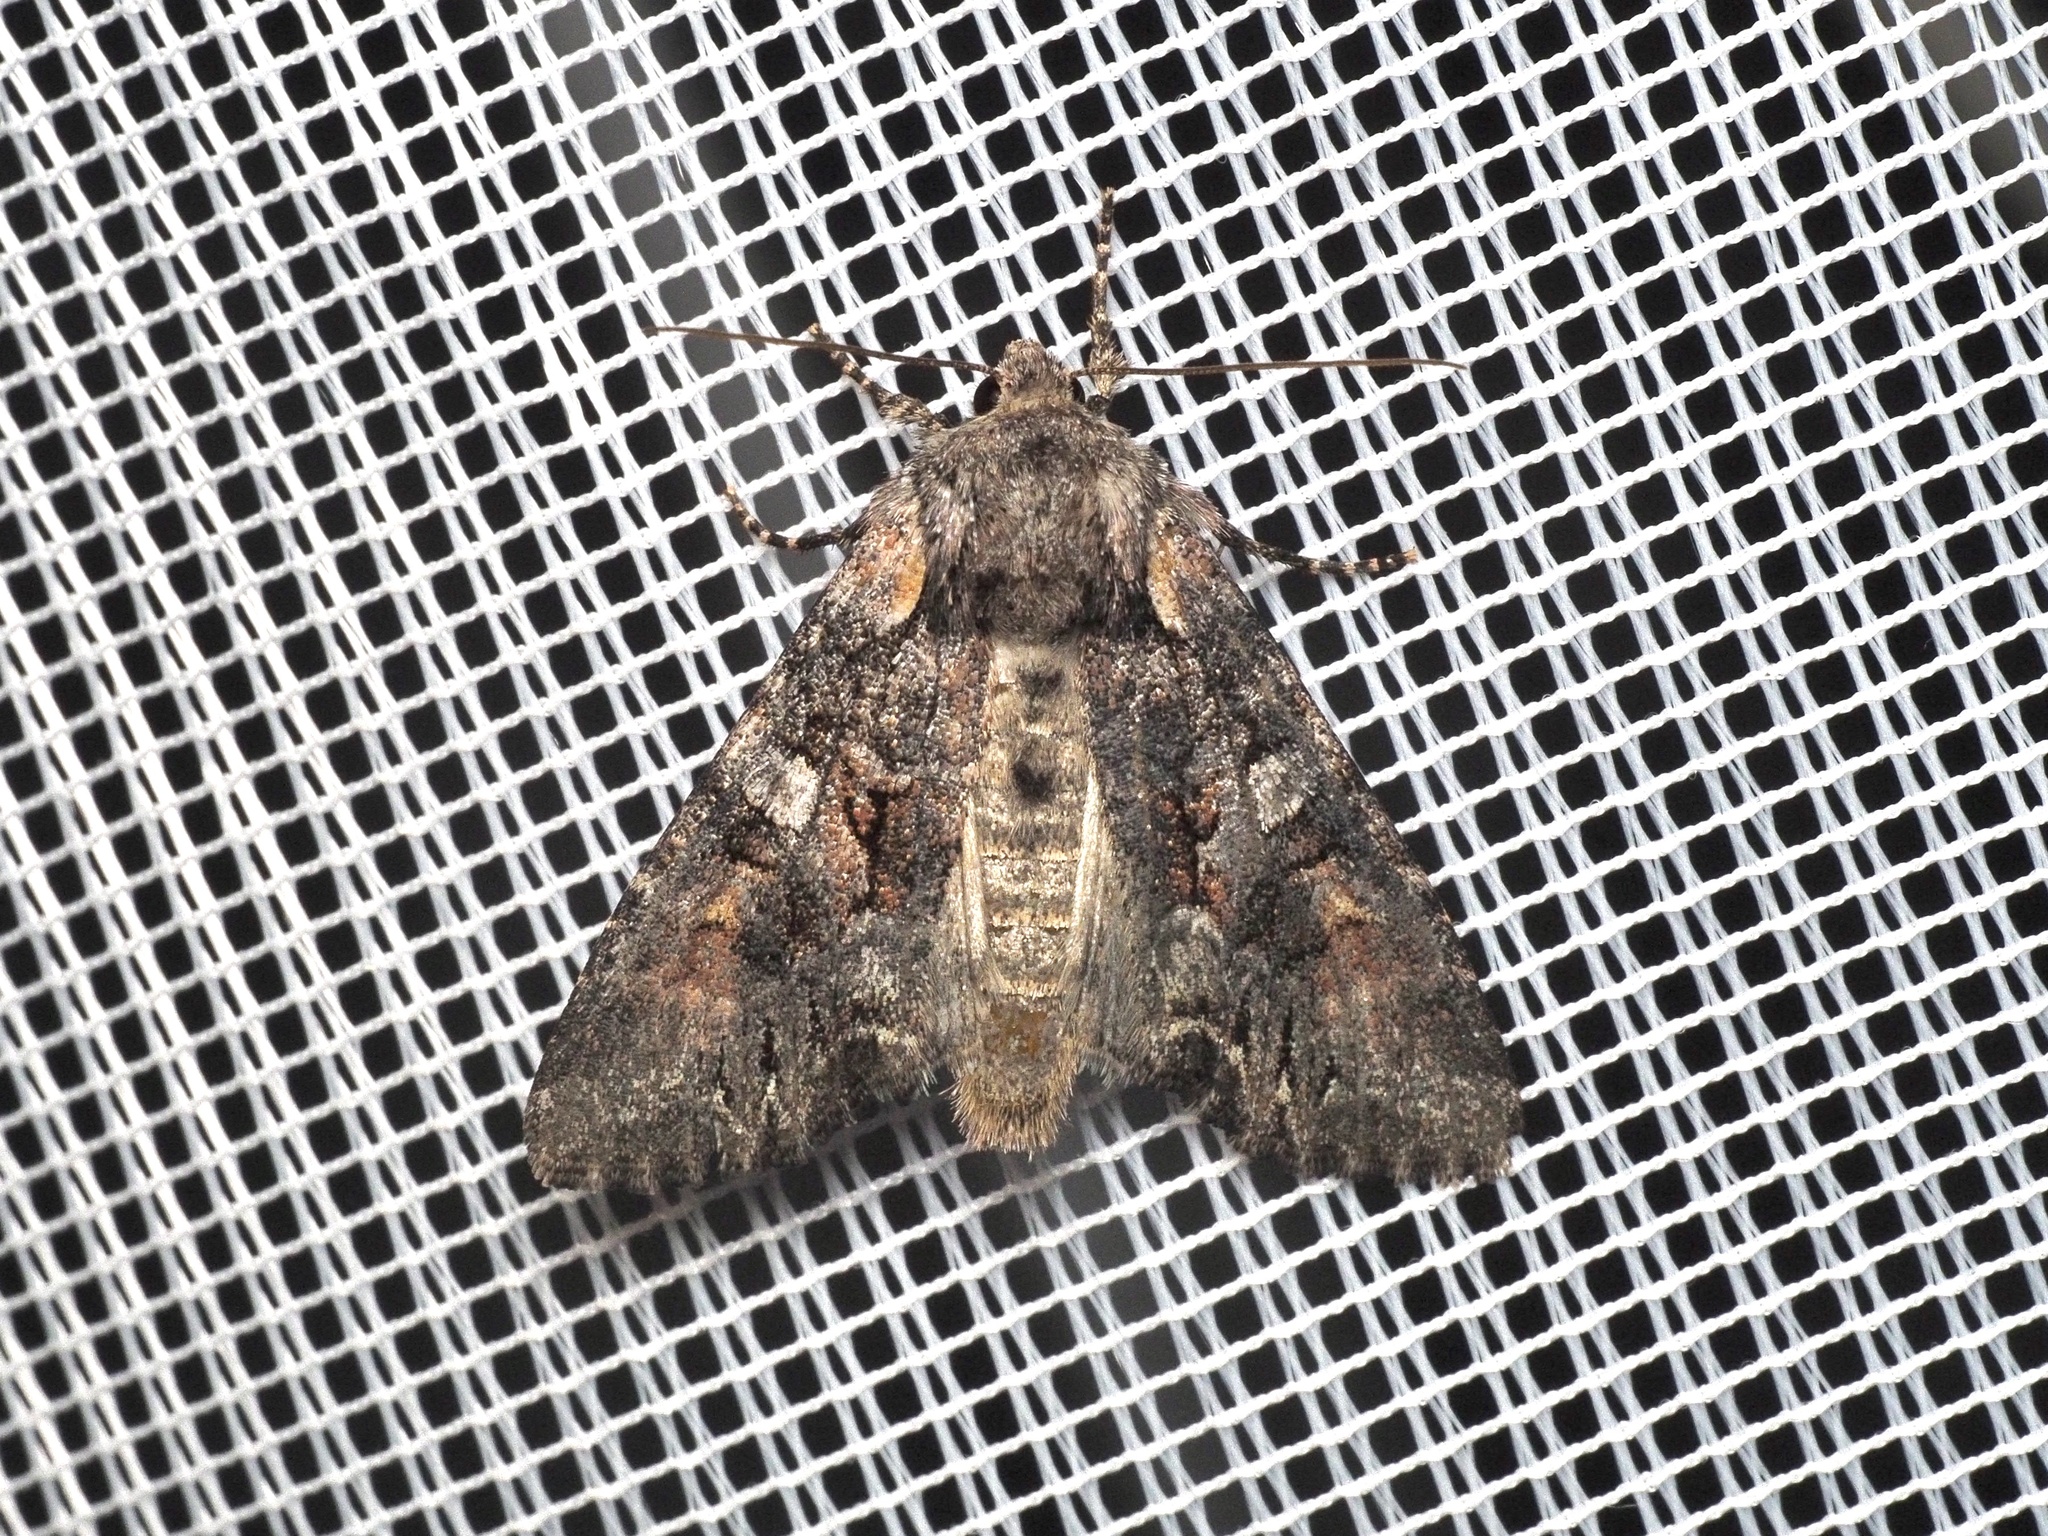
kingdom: Animalia
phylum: Arthropoda
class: Insecta
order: Lepidoptera
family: Noctuidae
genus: Lacanobia
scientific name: Lacanobia contigua
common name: Beautiful brocade
